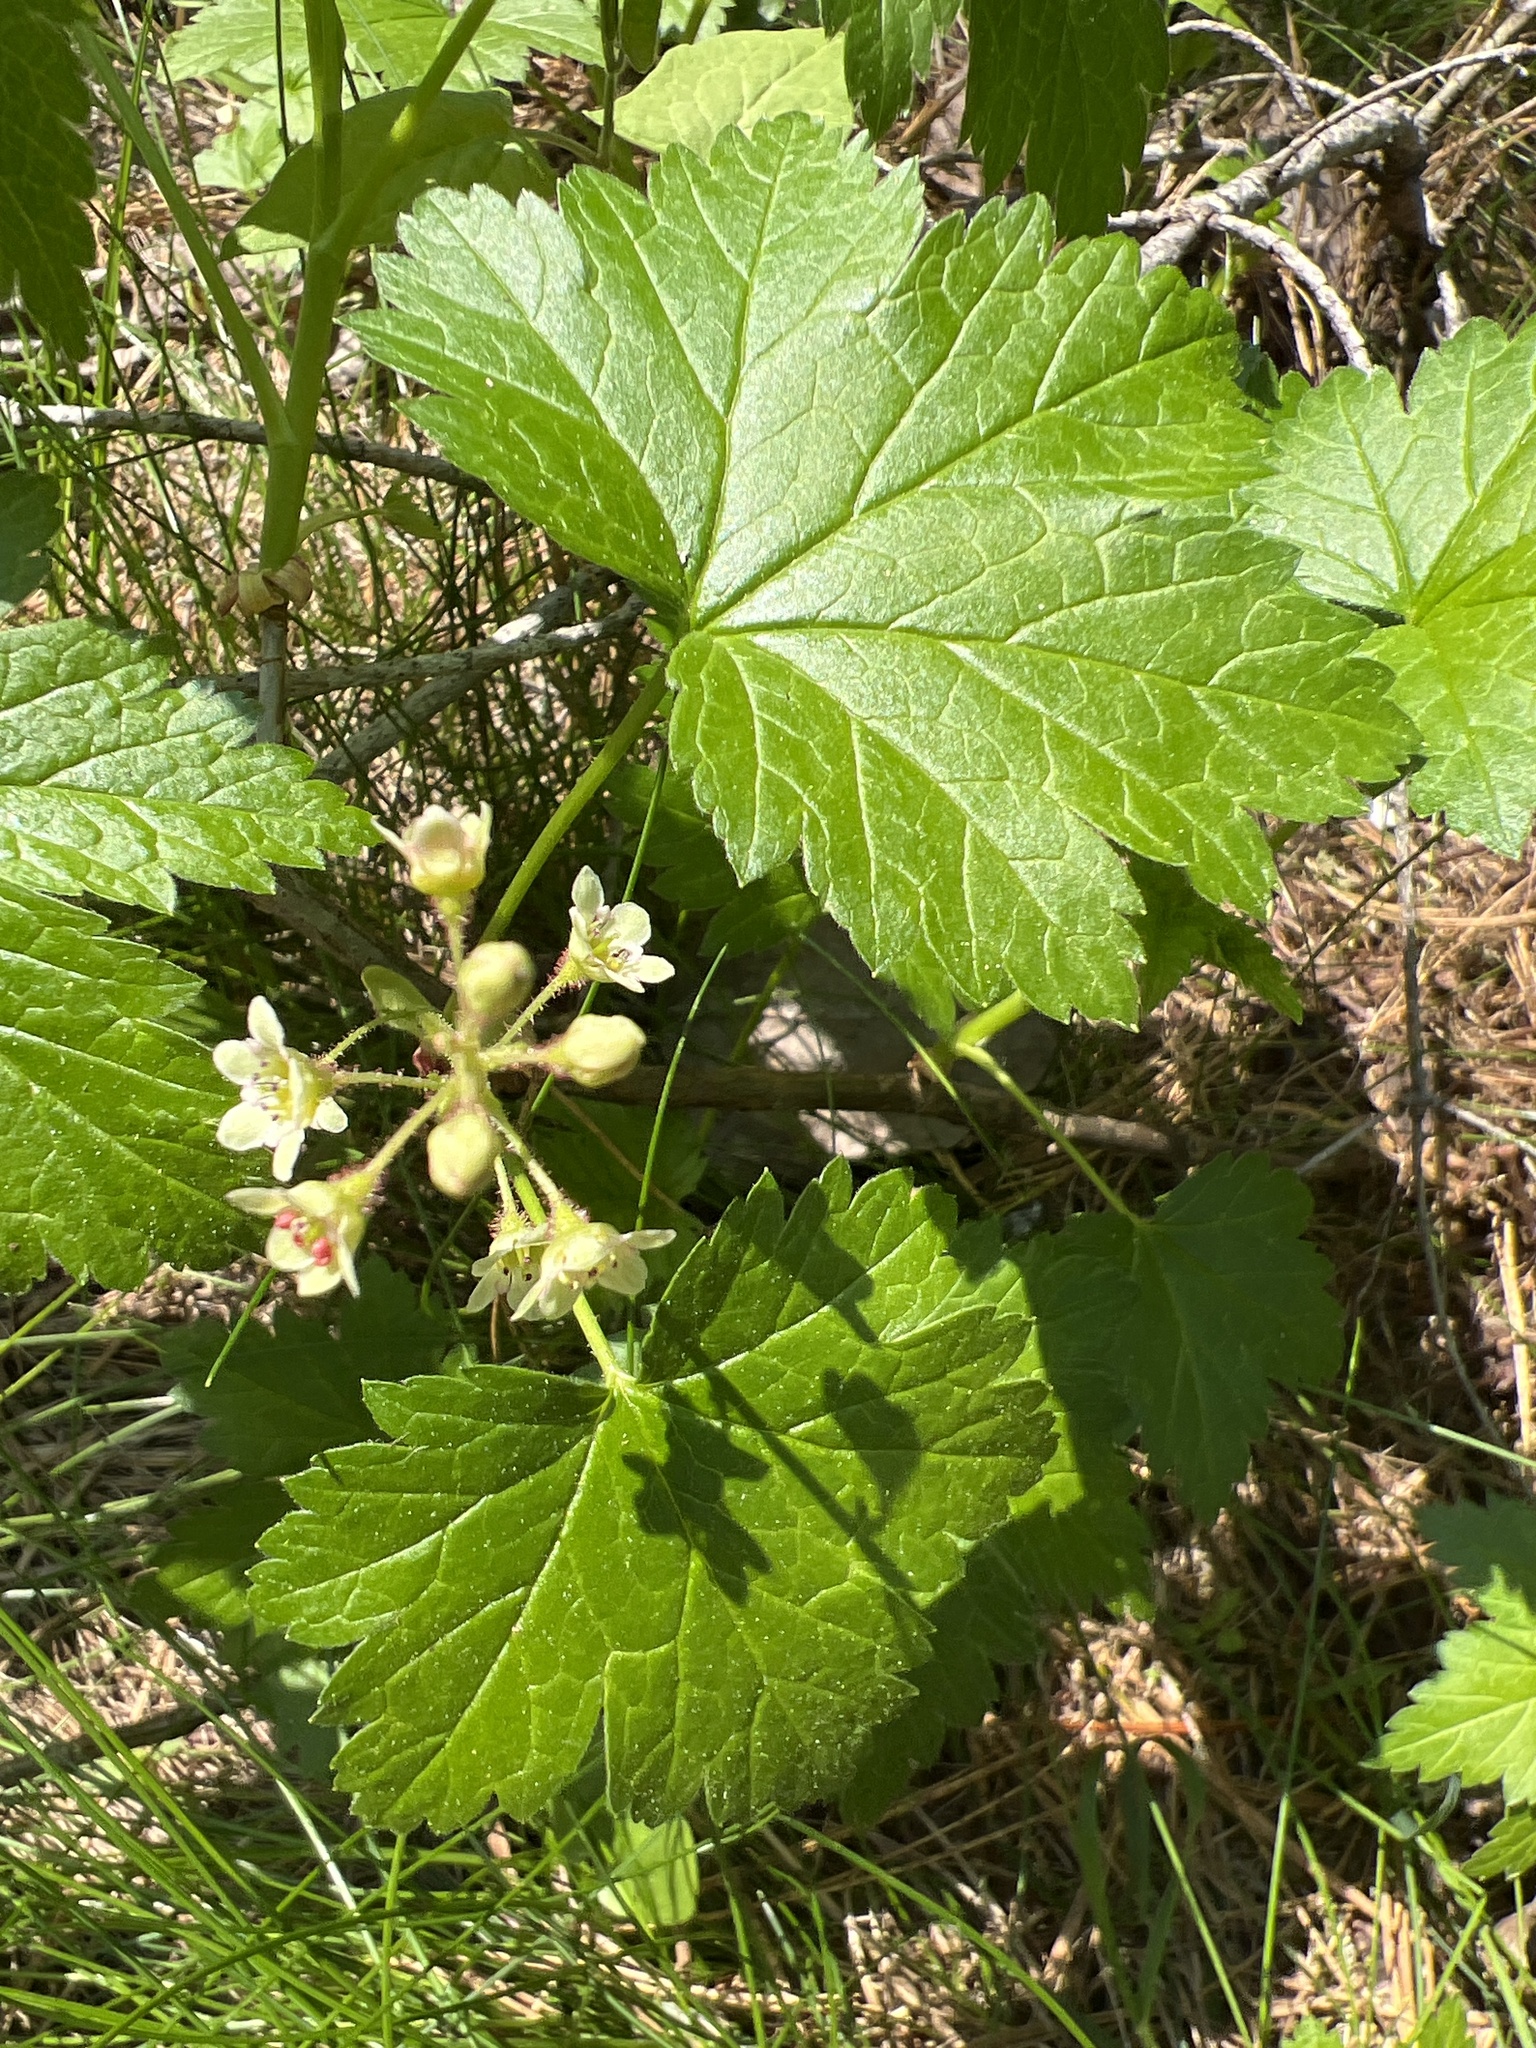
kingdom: Plantae
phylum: Tracheophyta
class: Magnoliopsida
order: Saxifragales
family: Grossulariaceae
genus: Ribes
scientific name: Ribes glandulosum
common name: Skunk currant
